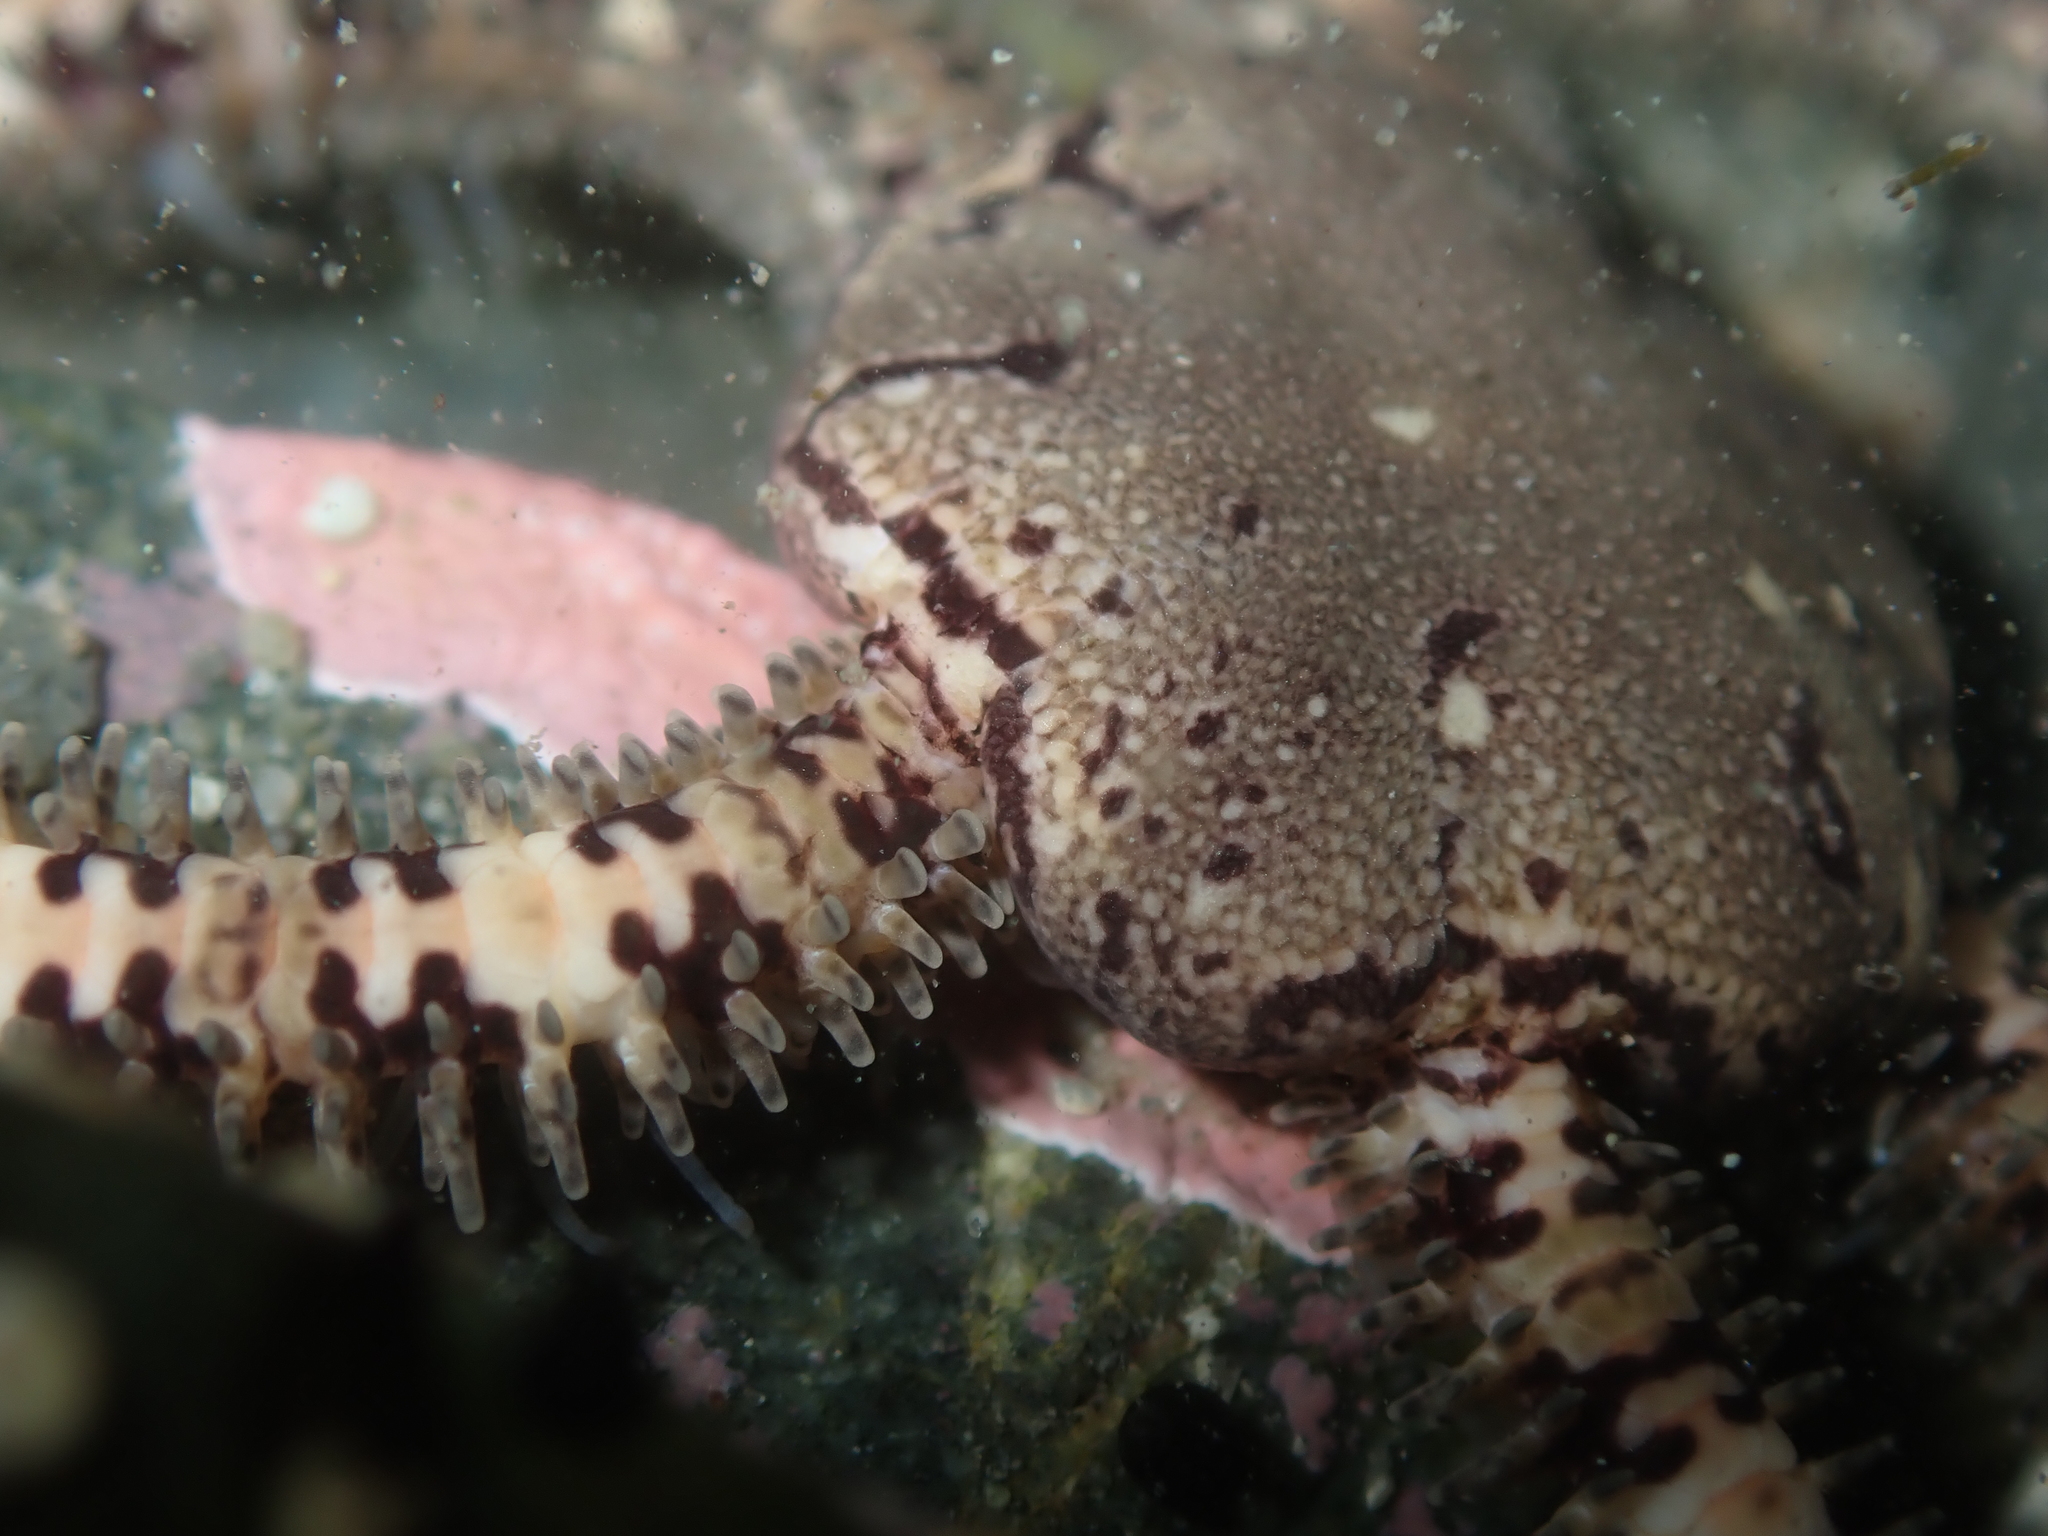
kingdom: Animalia
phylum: Echinodermata
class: Ophiuroidea
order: Amphilepidida
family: Ophionereididae
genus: Ophionereis
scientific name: Ophionereis fasciata
